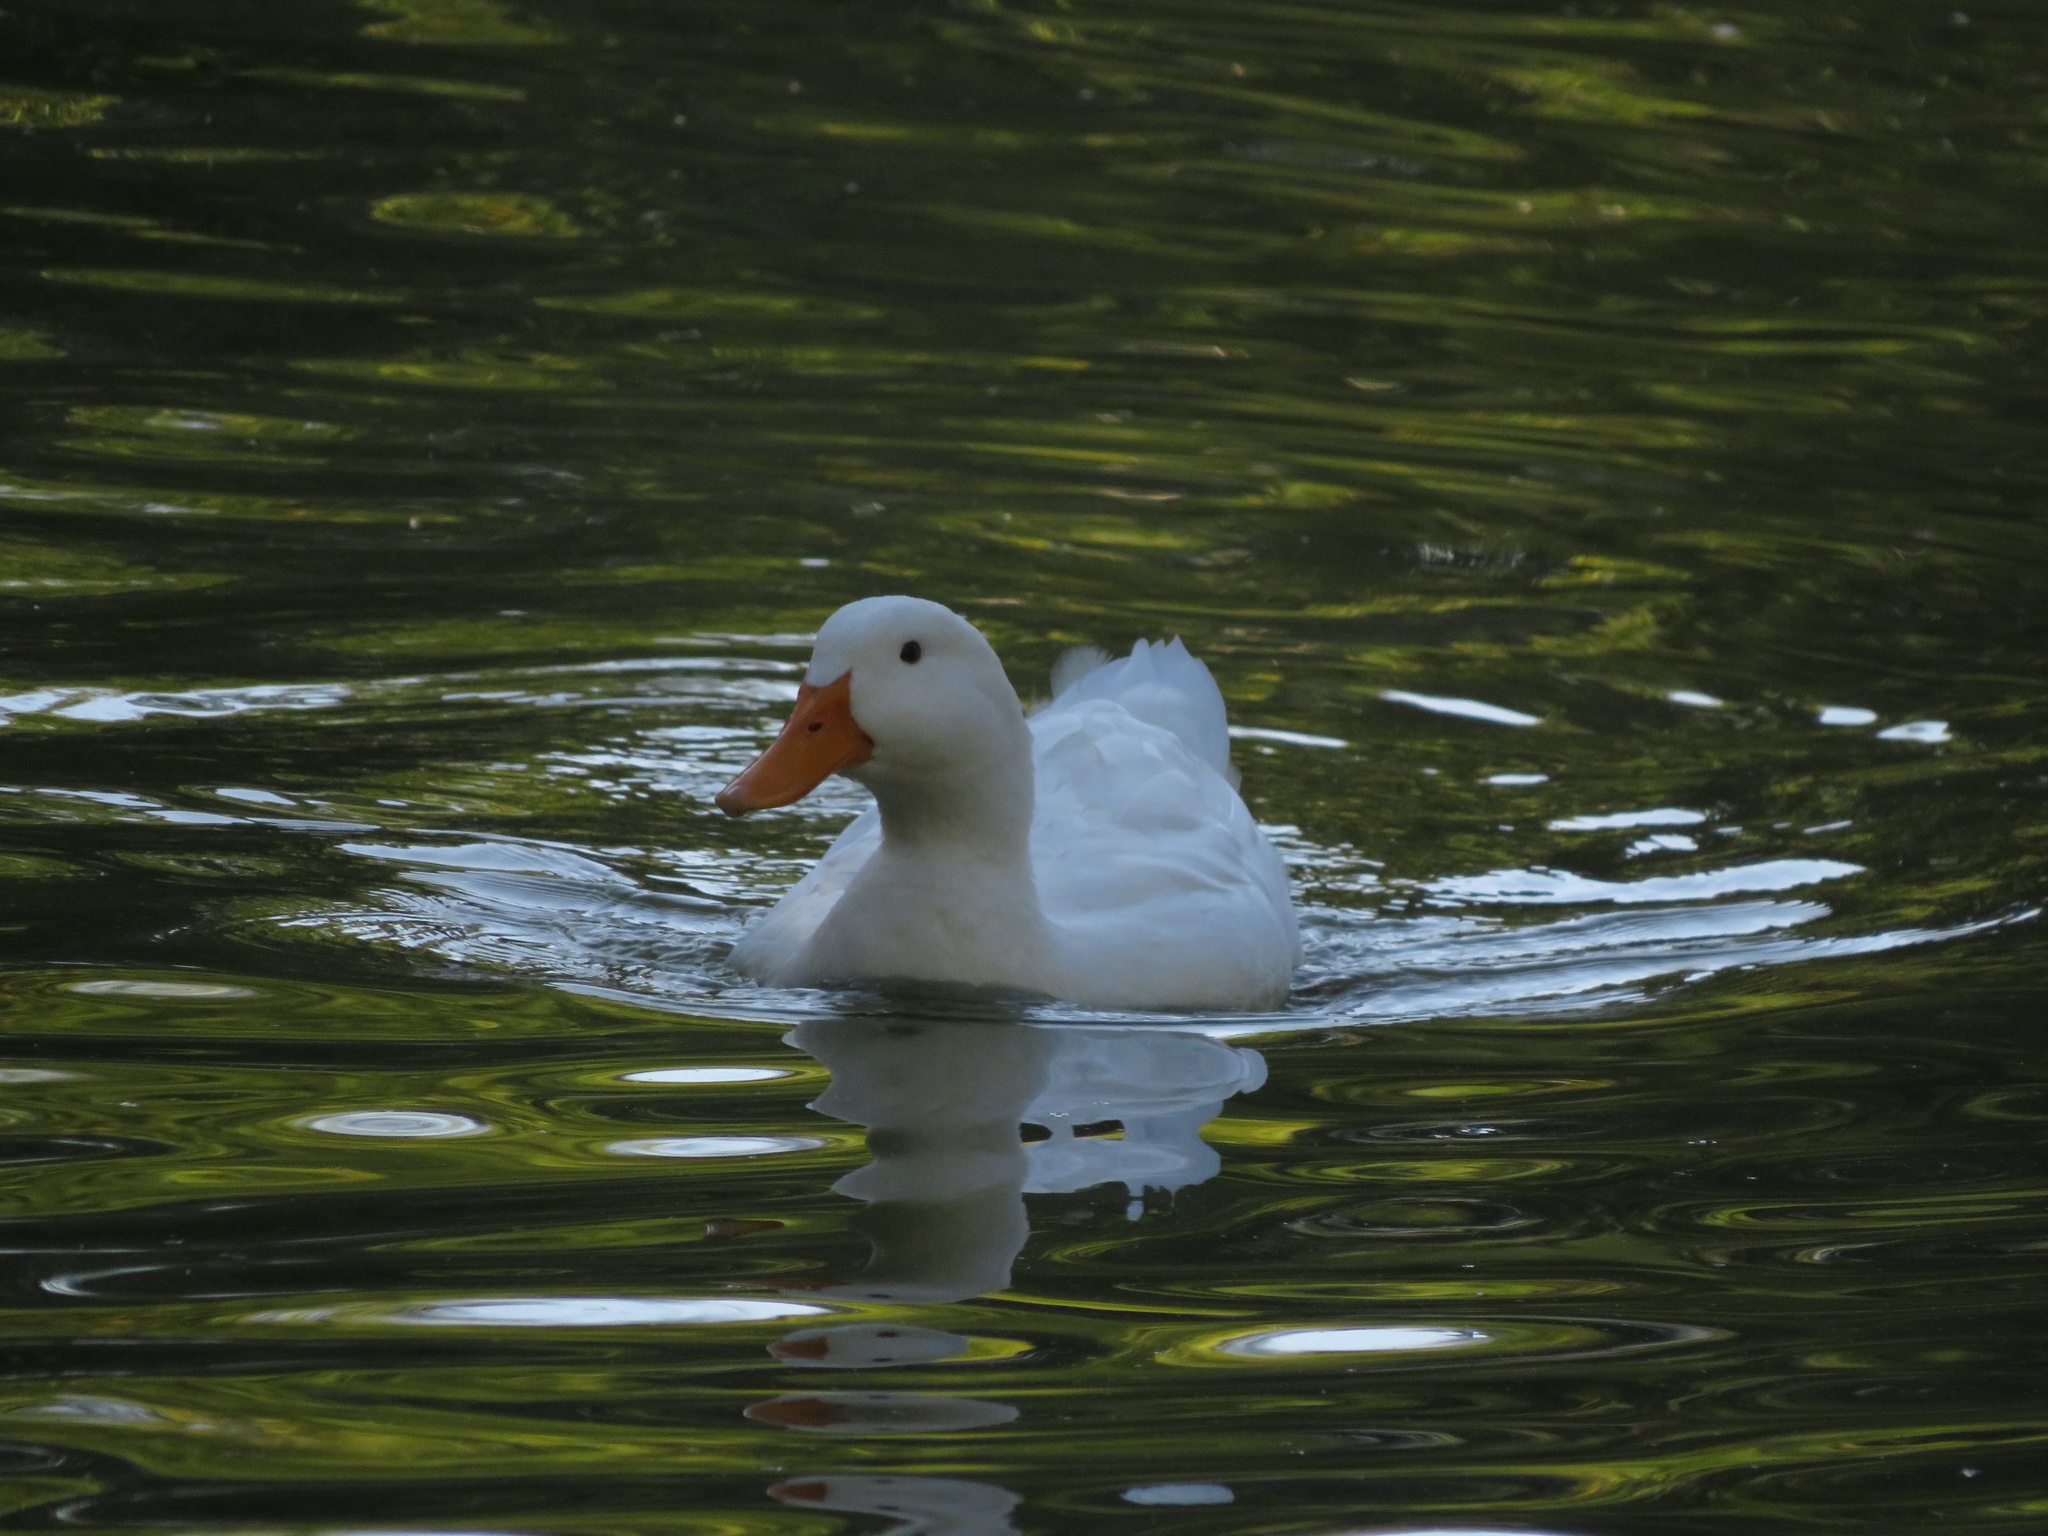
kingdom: Animalia
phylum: Chordata
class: Aves
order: Anseriformes
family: Anatidae
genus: Anas
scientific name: Anas platyrhynchos
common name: Mallard
